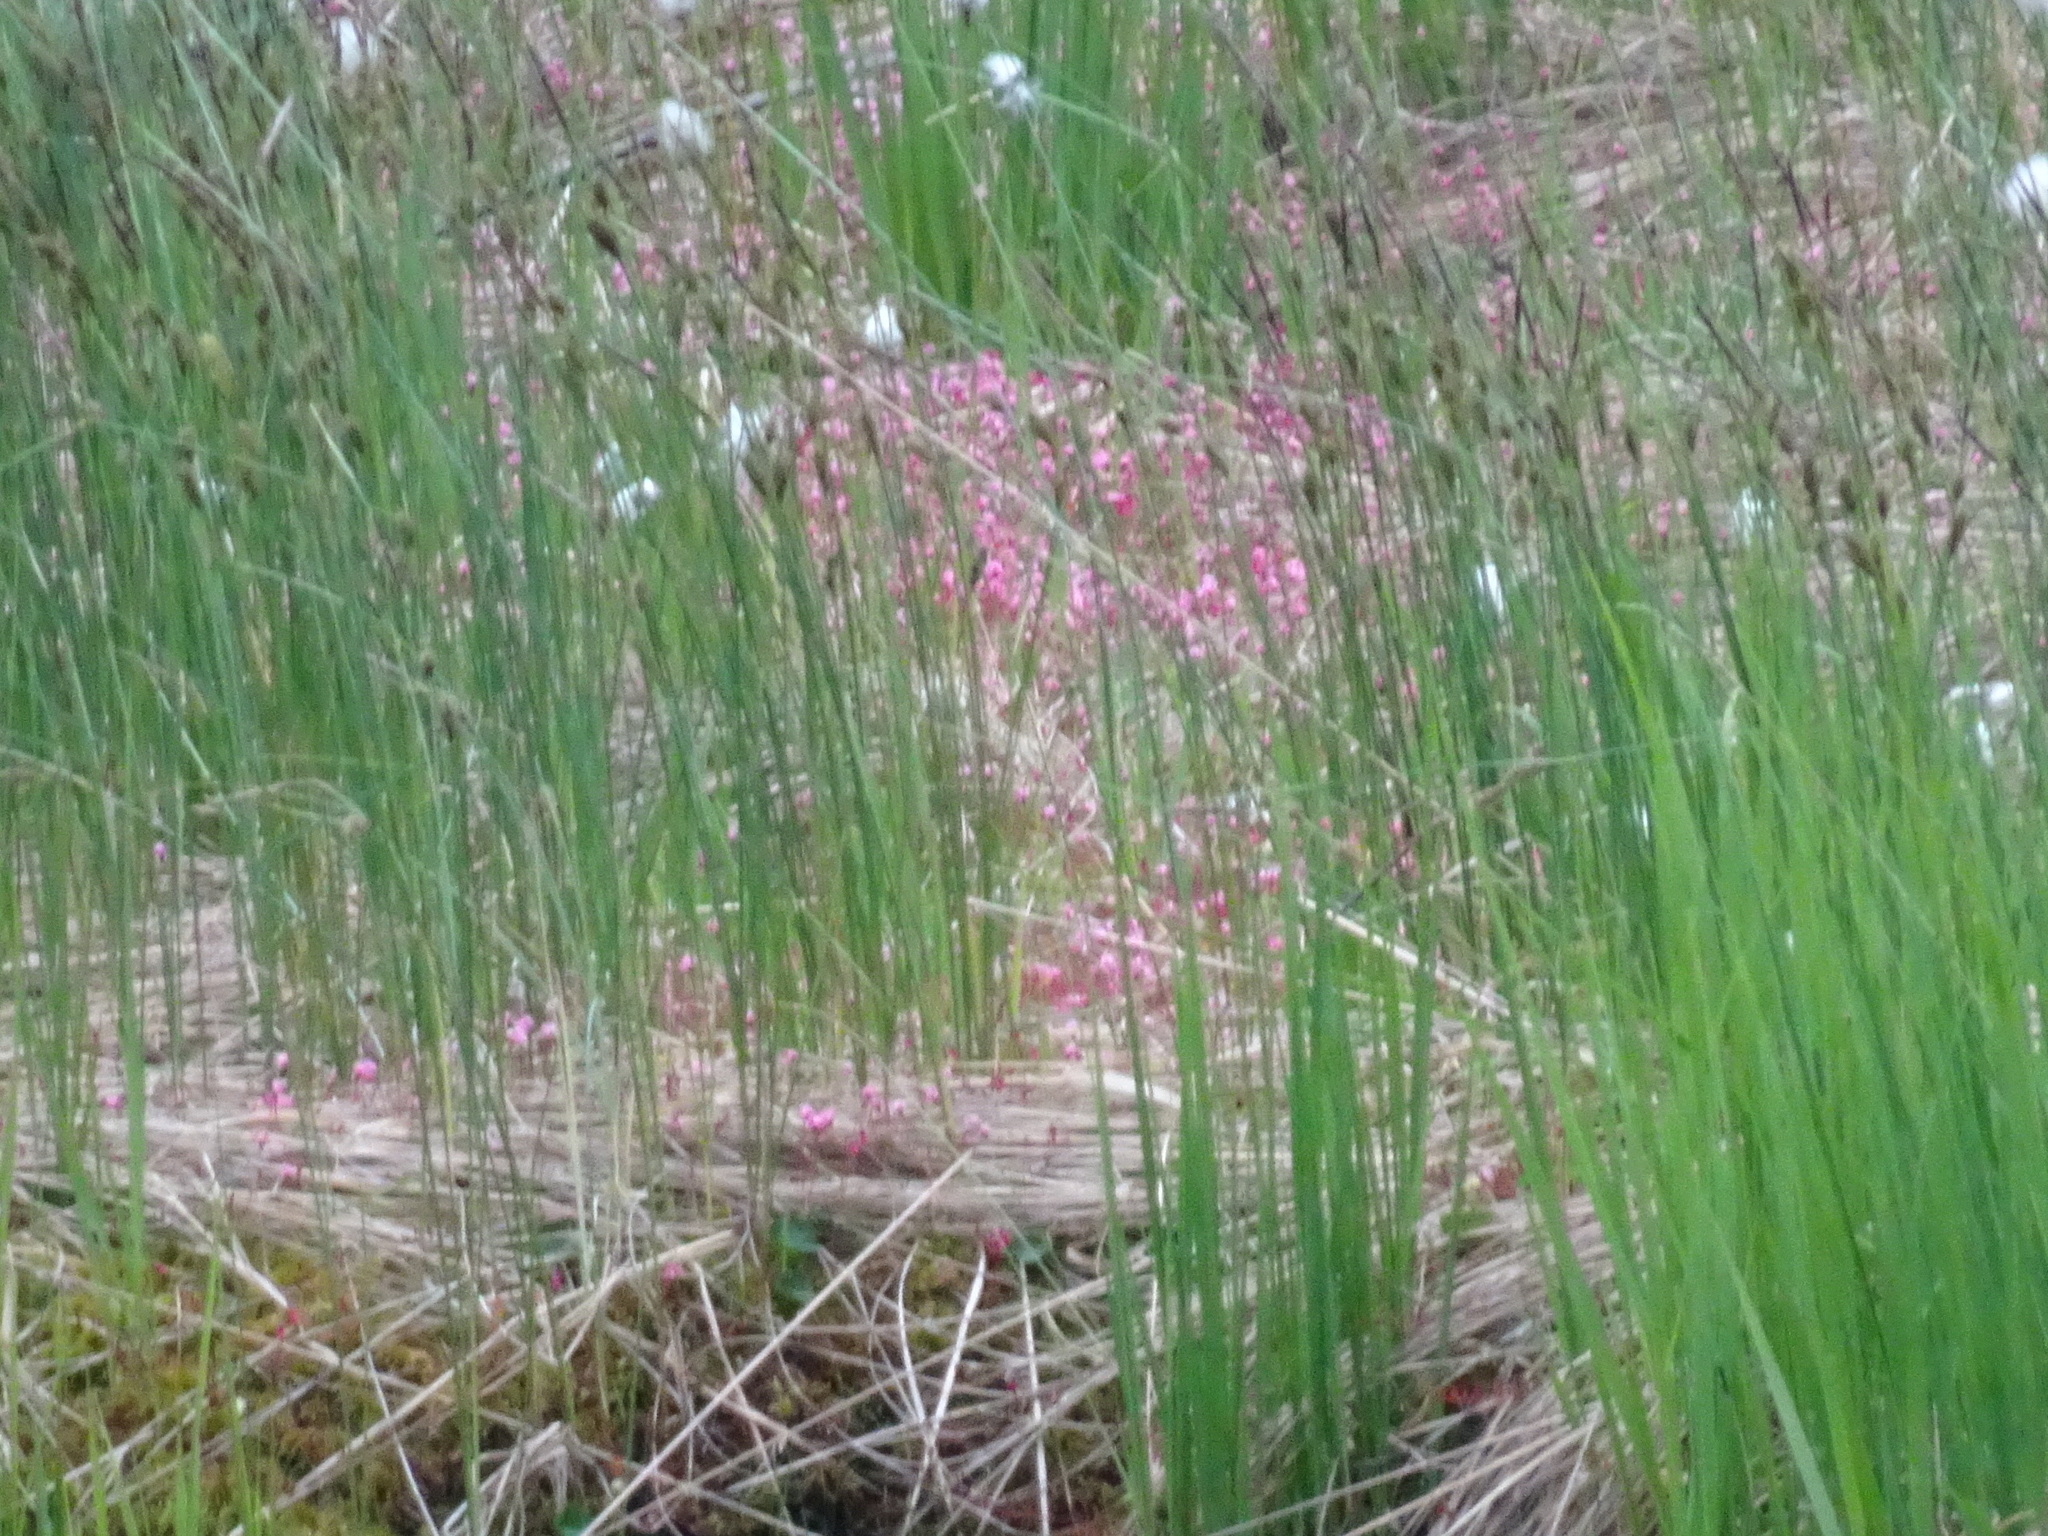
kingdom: Plantae
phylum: Tracheophyta
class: Magnoliopsida
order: Ericales
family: Ericaceae
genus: Vaccinium
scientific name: Vaccinium oxycoccos
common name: Cranberry
